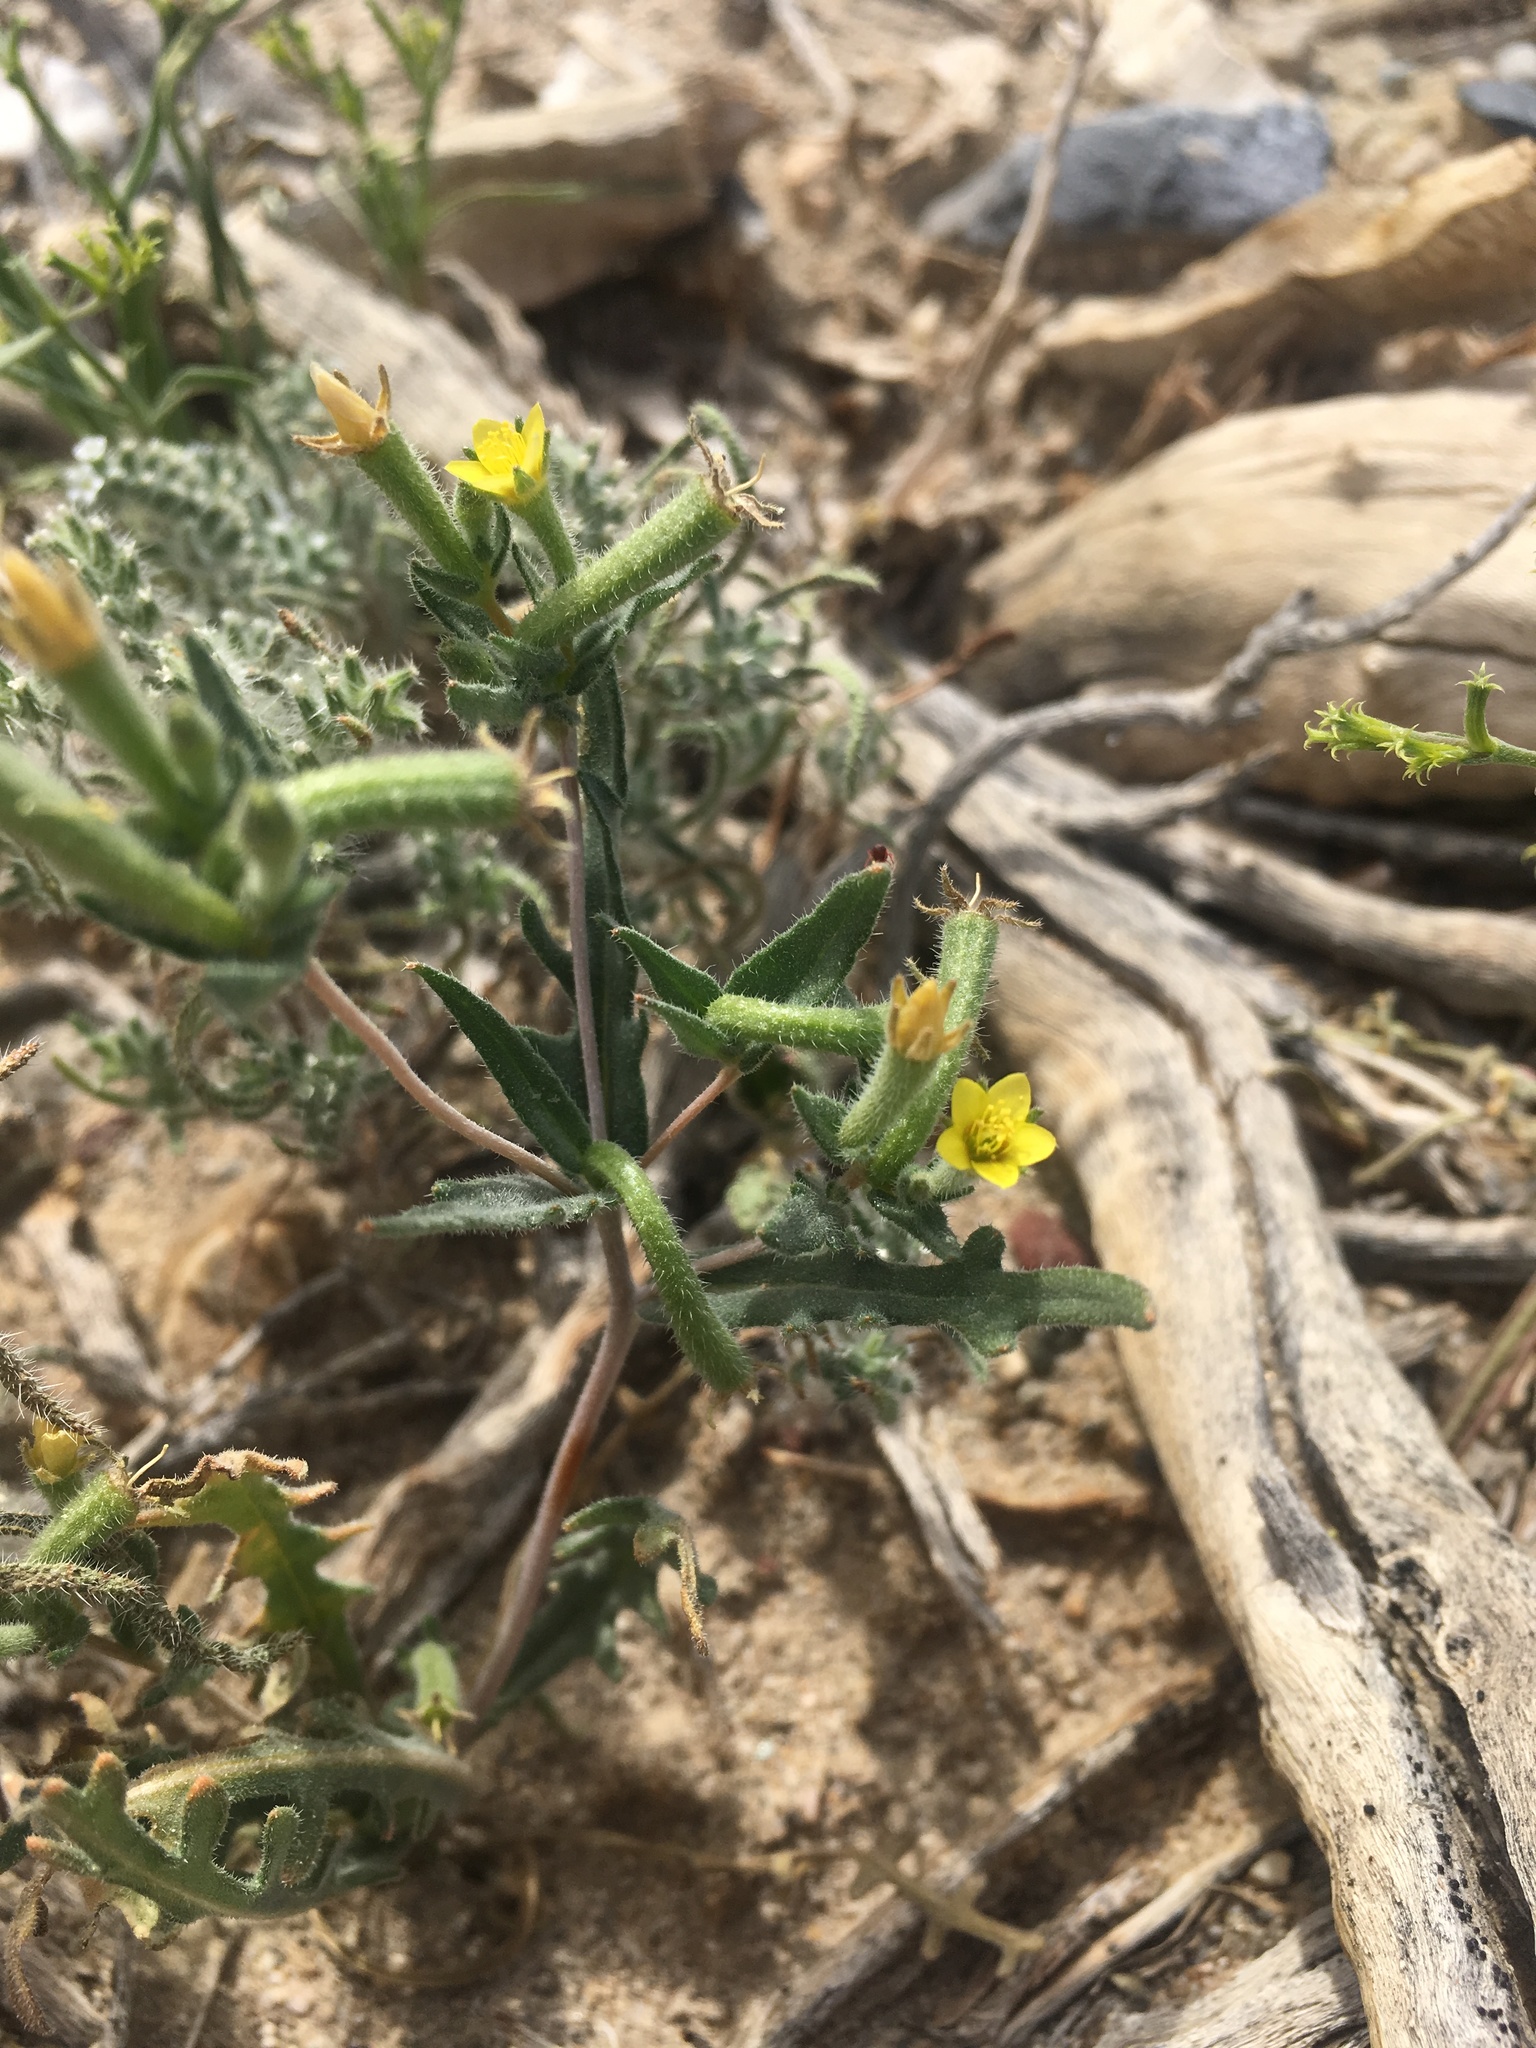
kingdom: Plantae
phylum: Tracheophyta
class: Magnoliopsida
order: Cornales
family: Loasaceae
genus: Mentzelia
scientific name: Mentzelia albicaulis
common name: White-stem blazingstar
